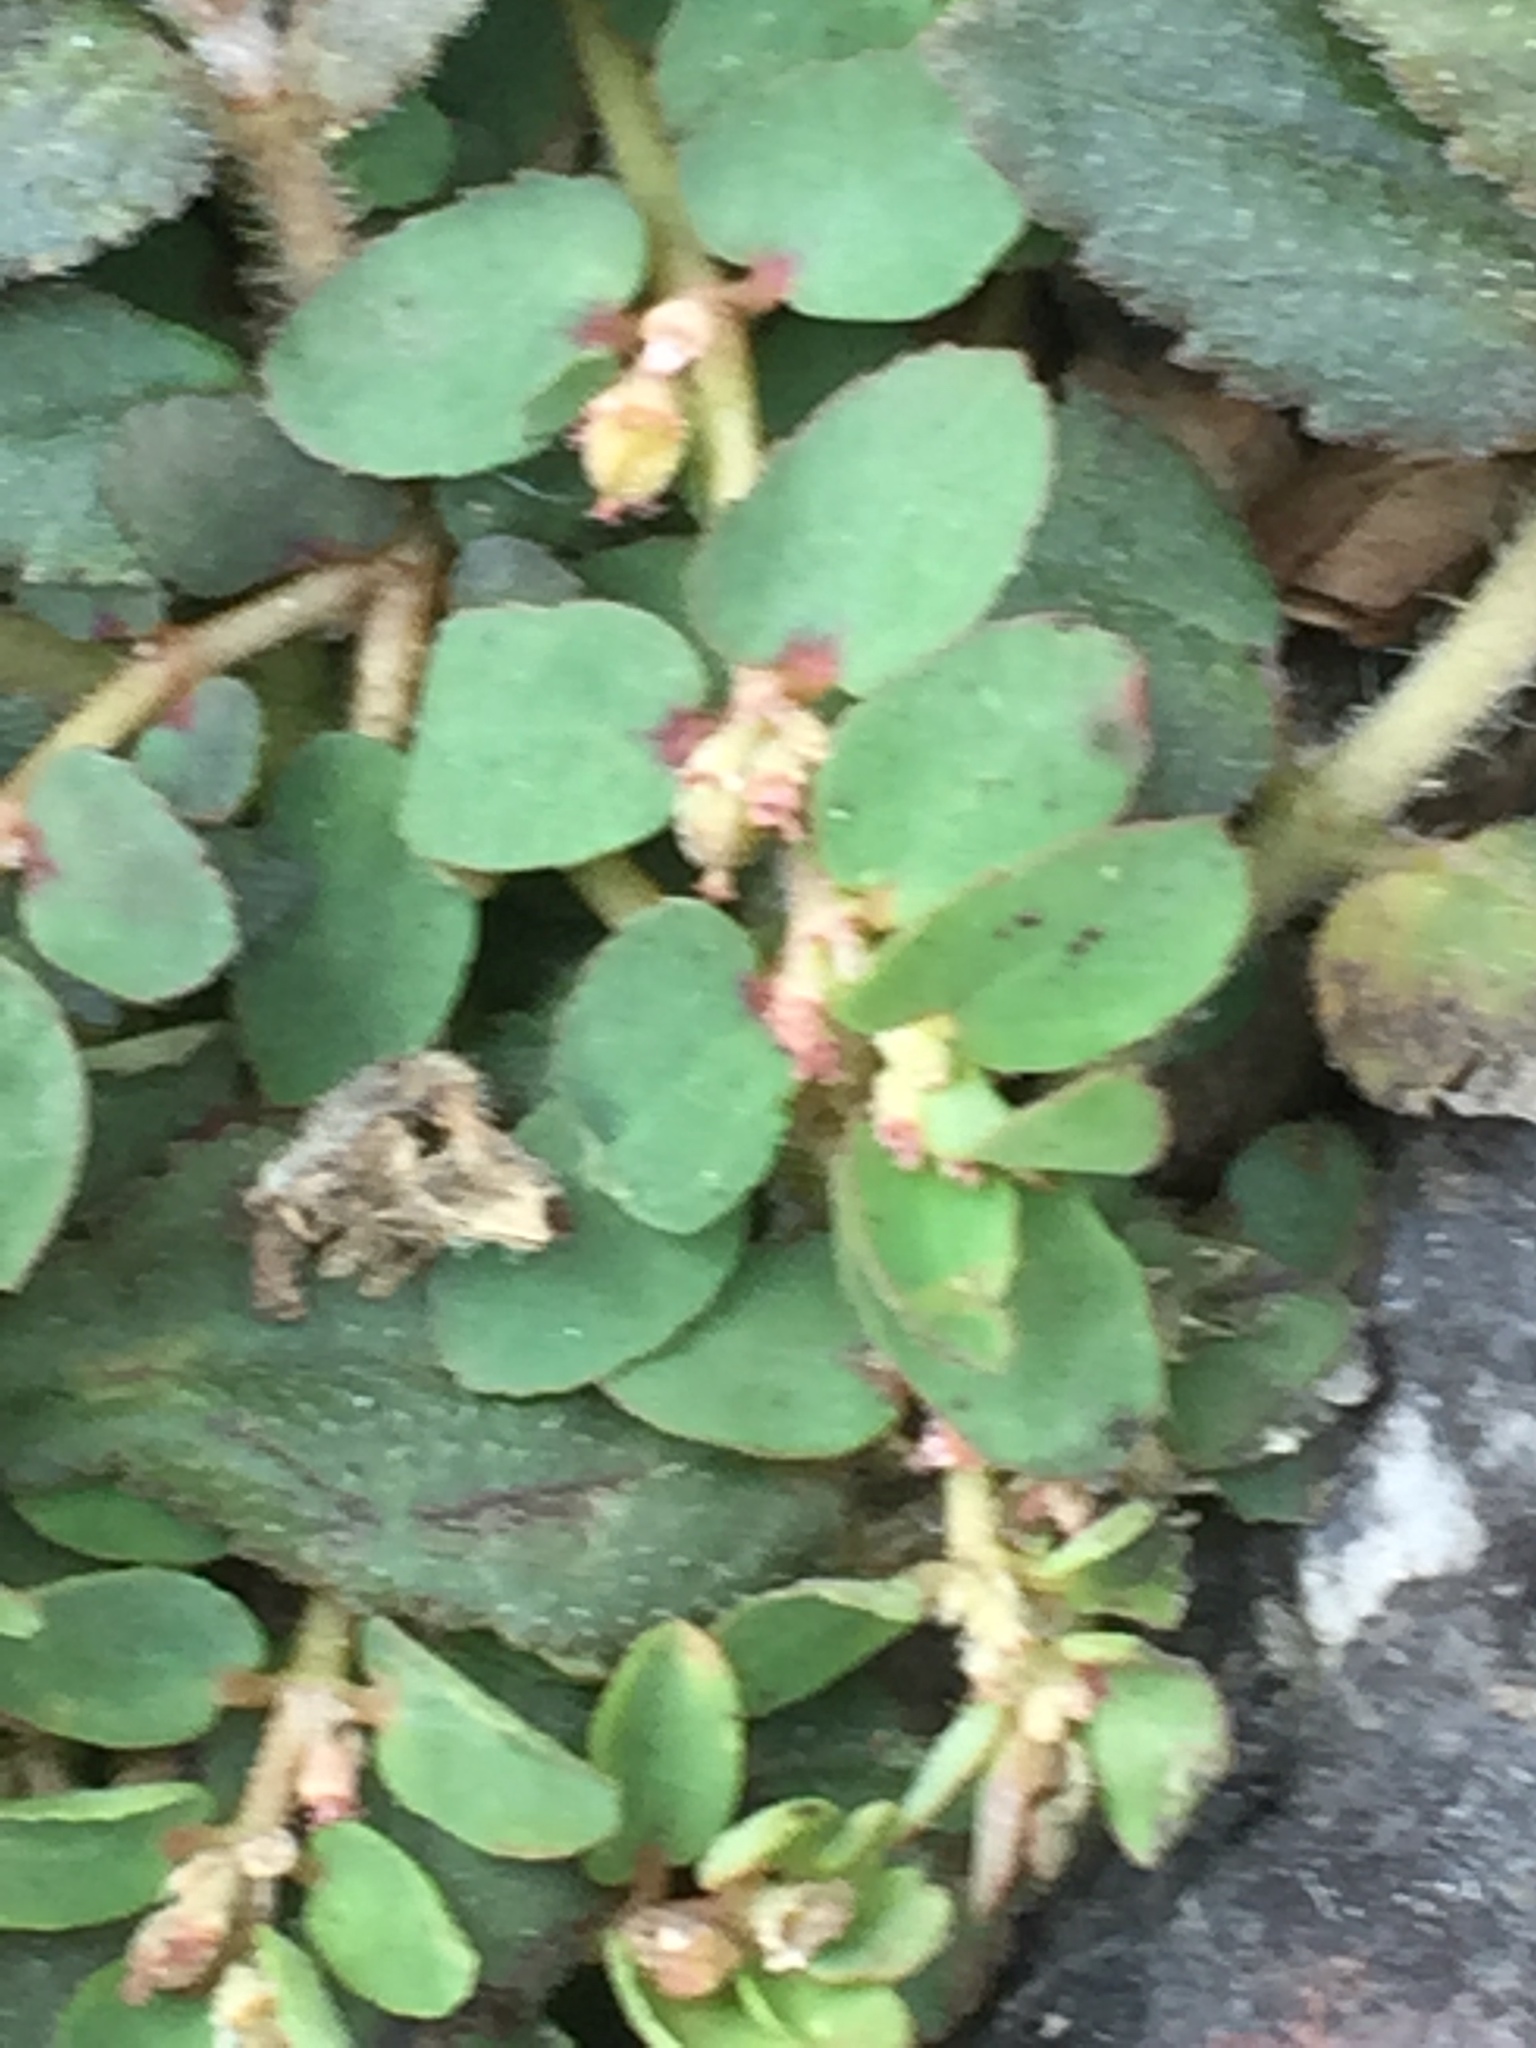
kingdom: Plantae
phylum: Tracheophyta
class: Magnoliopsida
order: Malpighiales
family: Euphorbiaceae
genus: Euphorbia
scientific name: Euphorbia thymifolia
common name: Gulf sandmat
